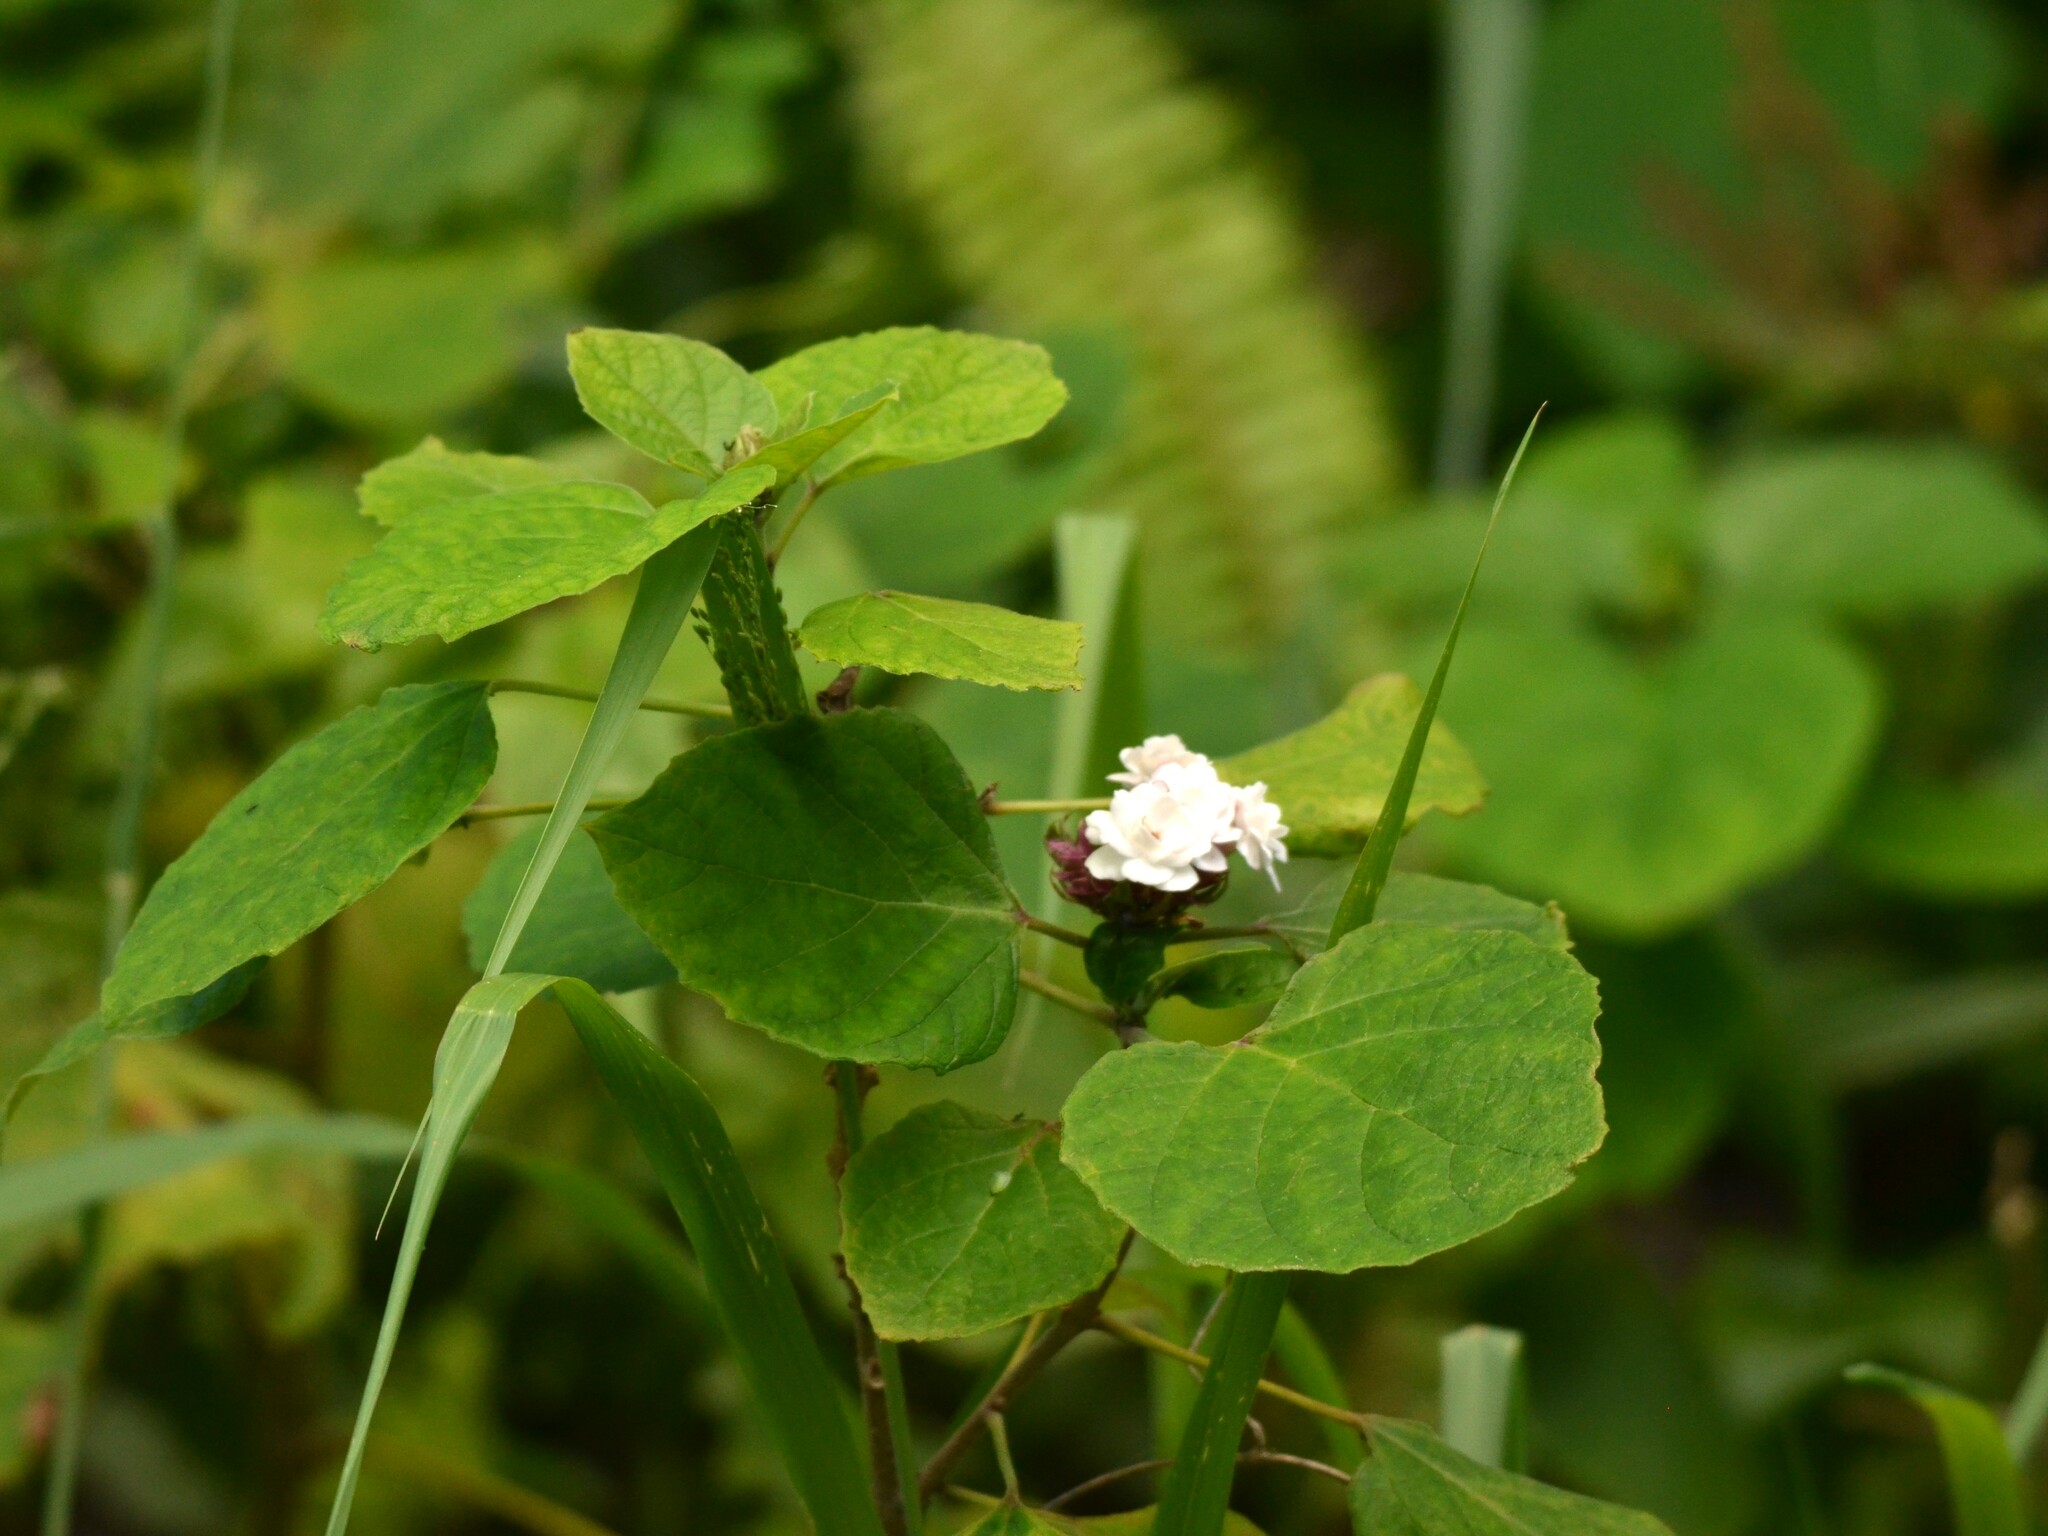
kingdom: Plantae
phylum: Tracheophyta
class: Magnoliopsida
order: Lamiales
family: Lamiaceae
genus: Clerodendrum
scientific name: Clerodendrum chinense
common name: Stickbush
